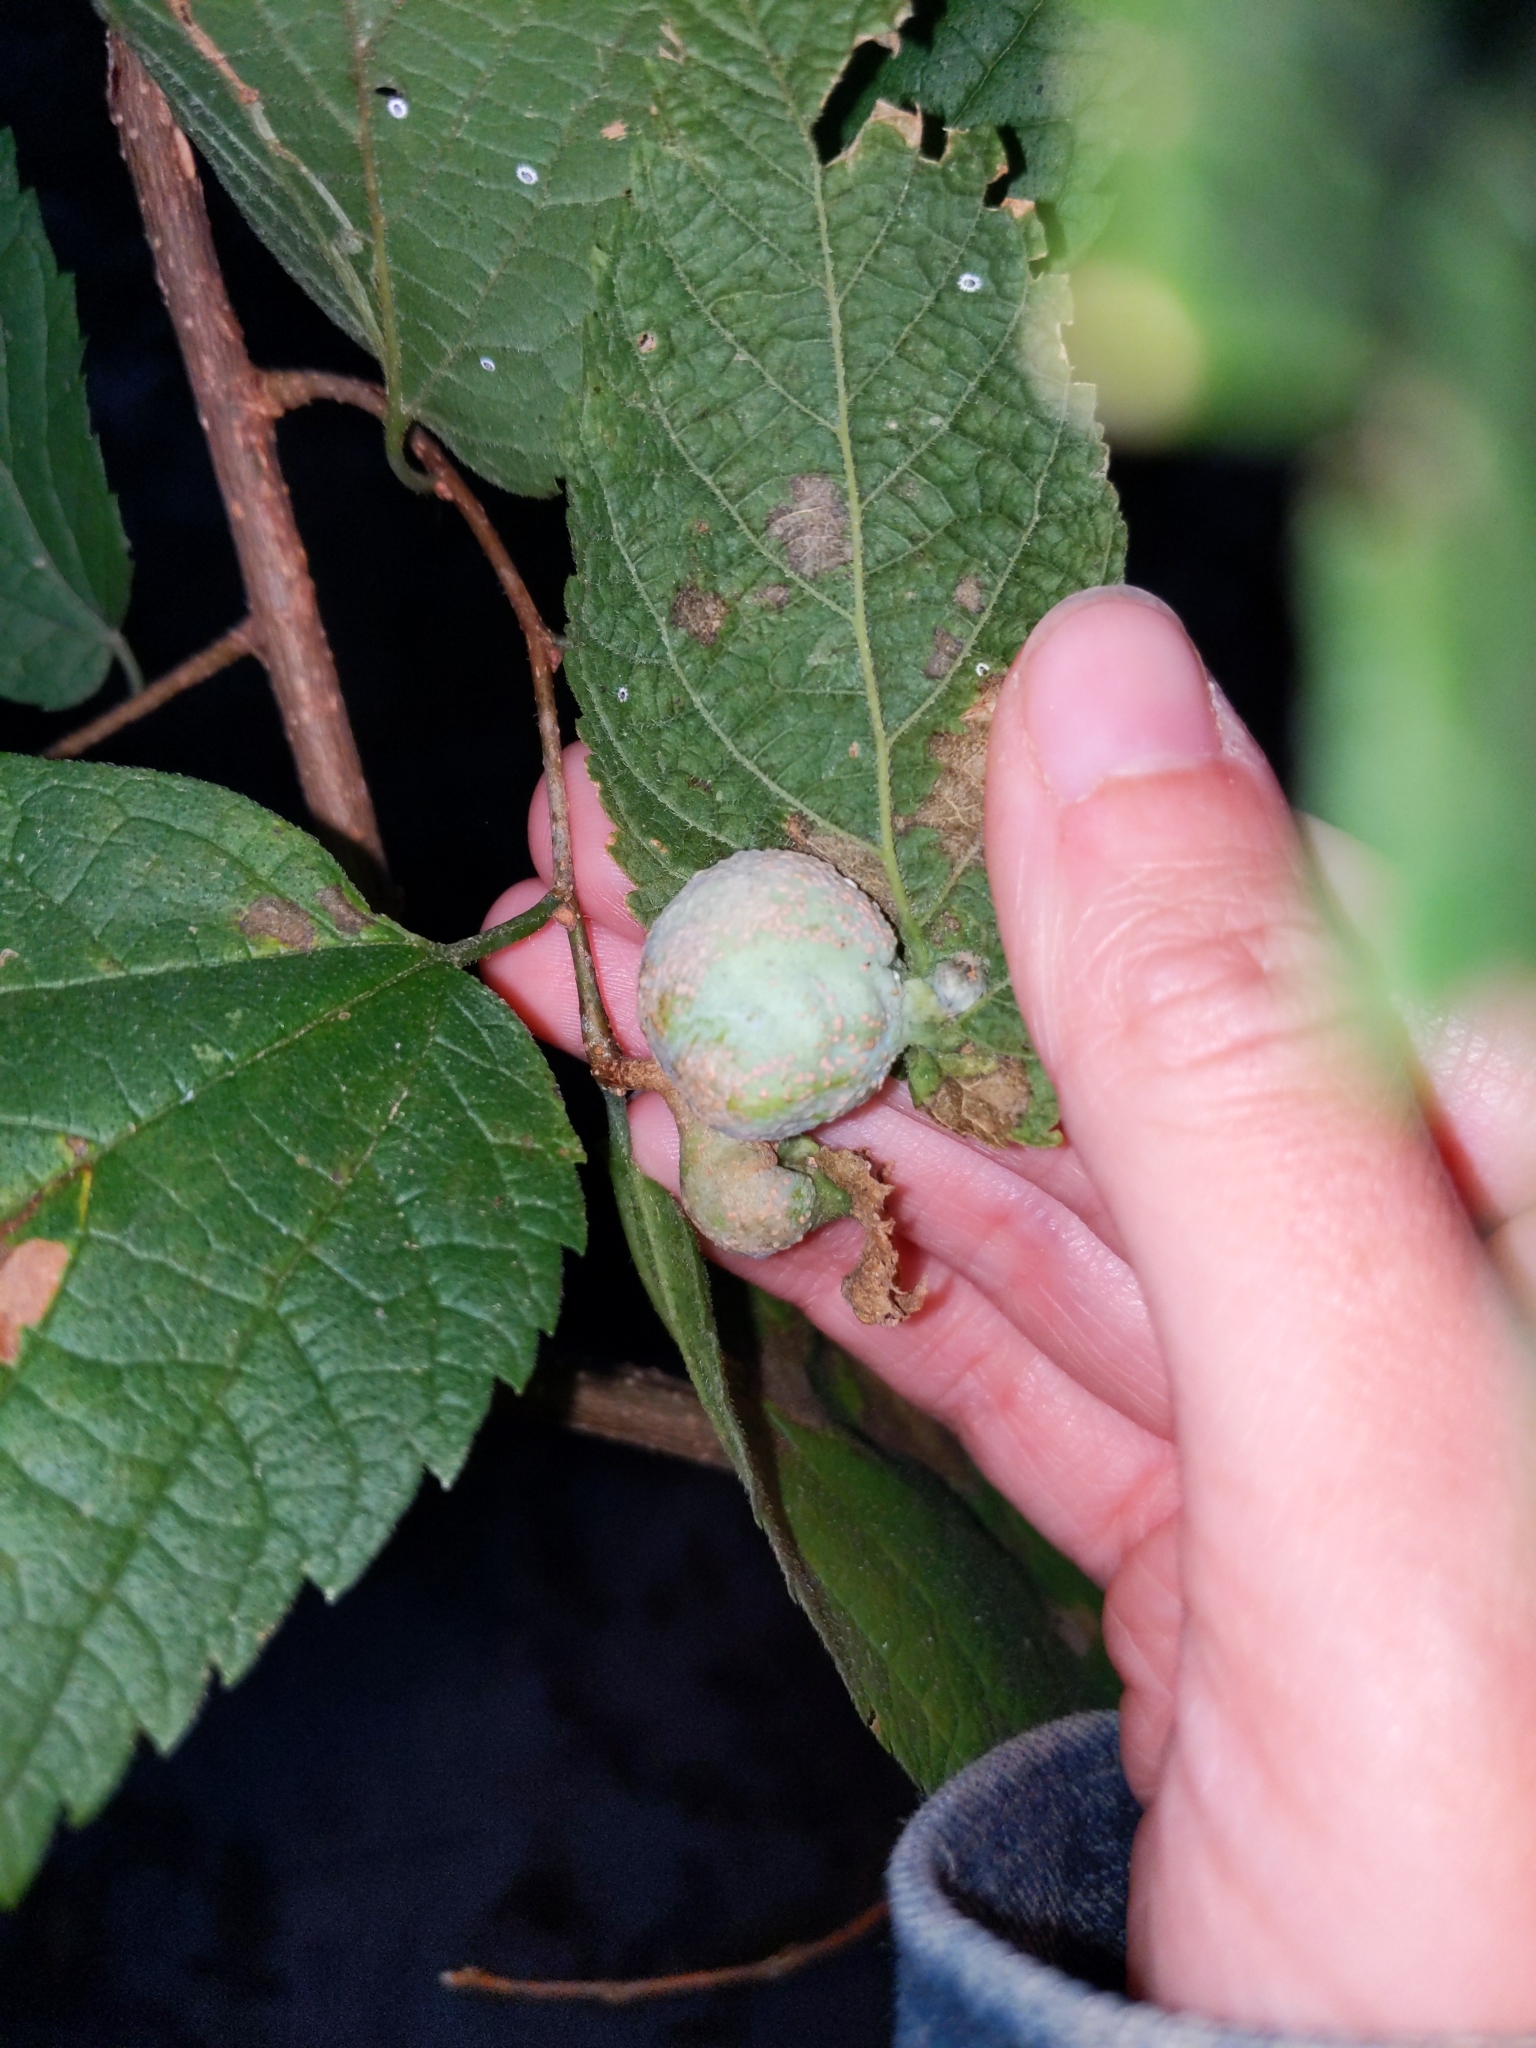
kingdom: Animalia
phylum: Arthropoda
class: Insecta
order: Hemiptera
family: Aphalaridae
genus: Pachypsylla
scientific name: Pachypsylla venusta
